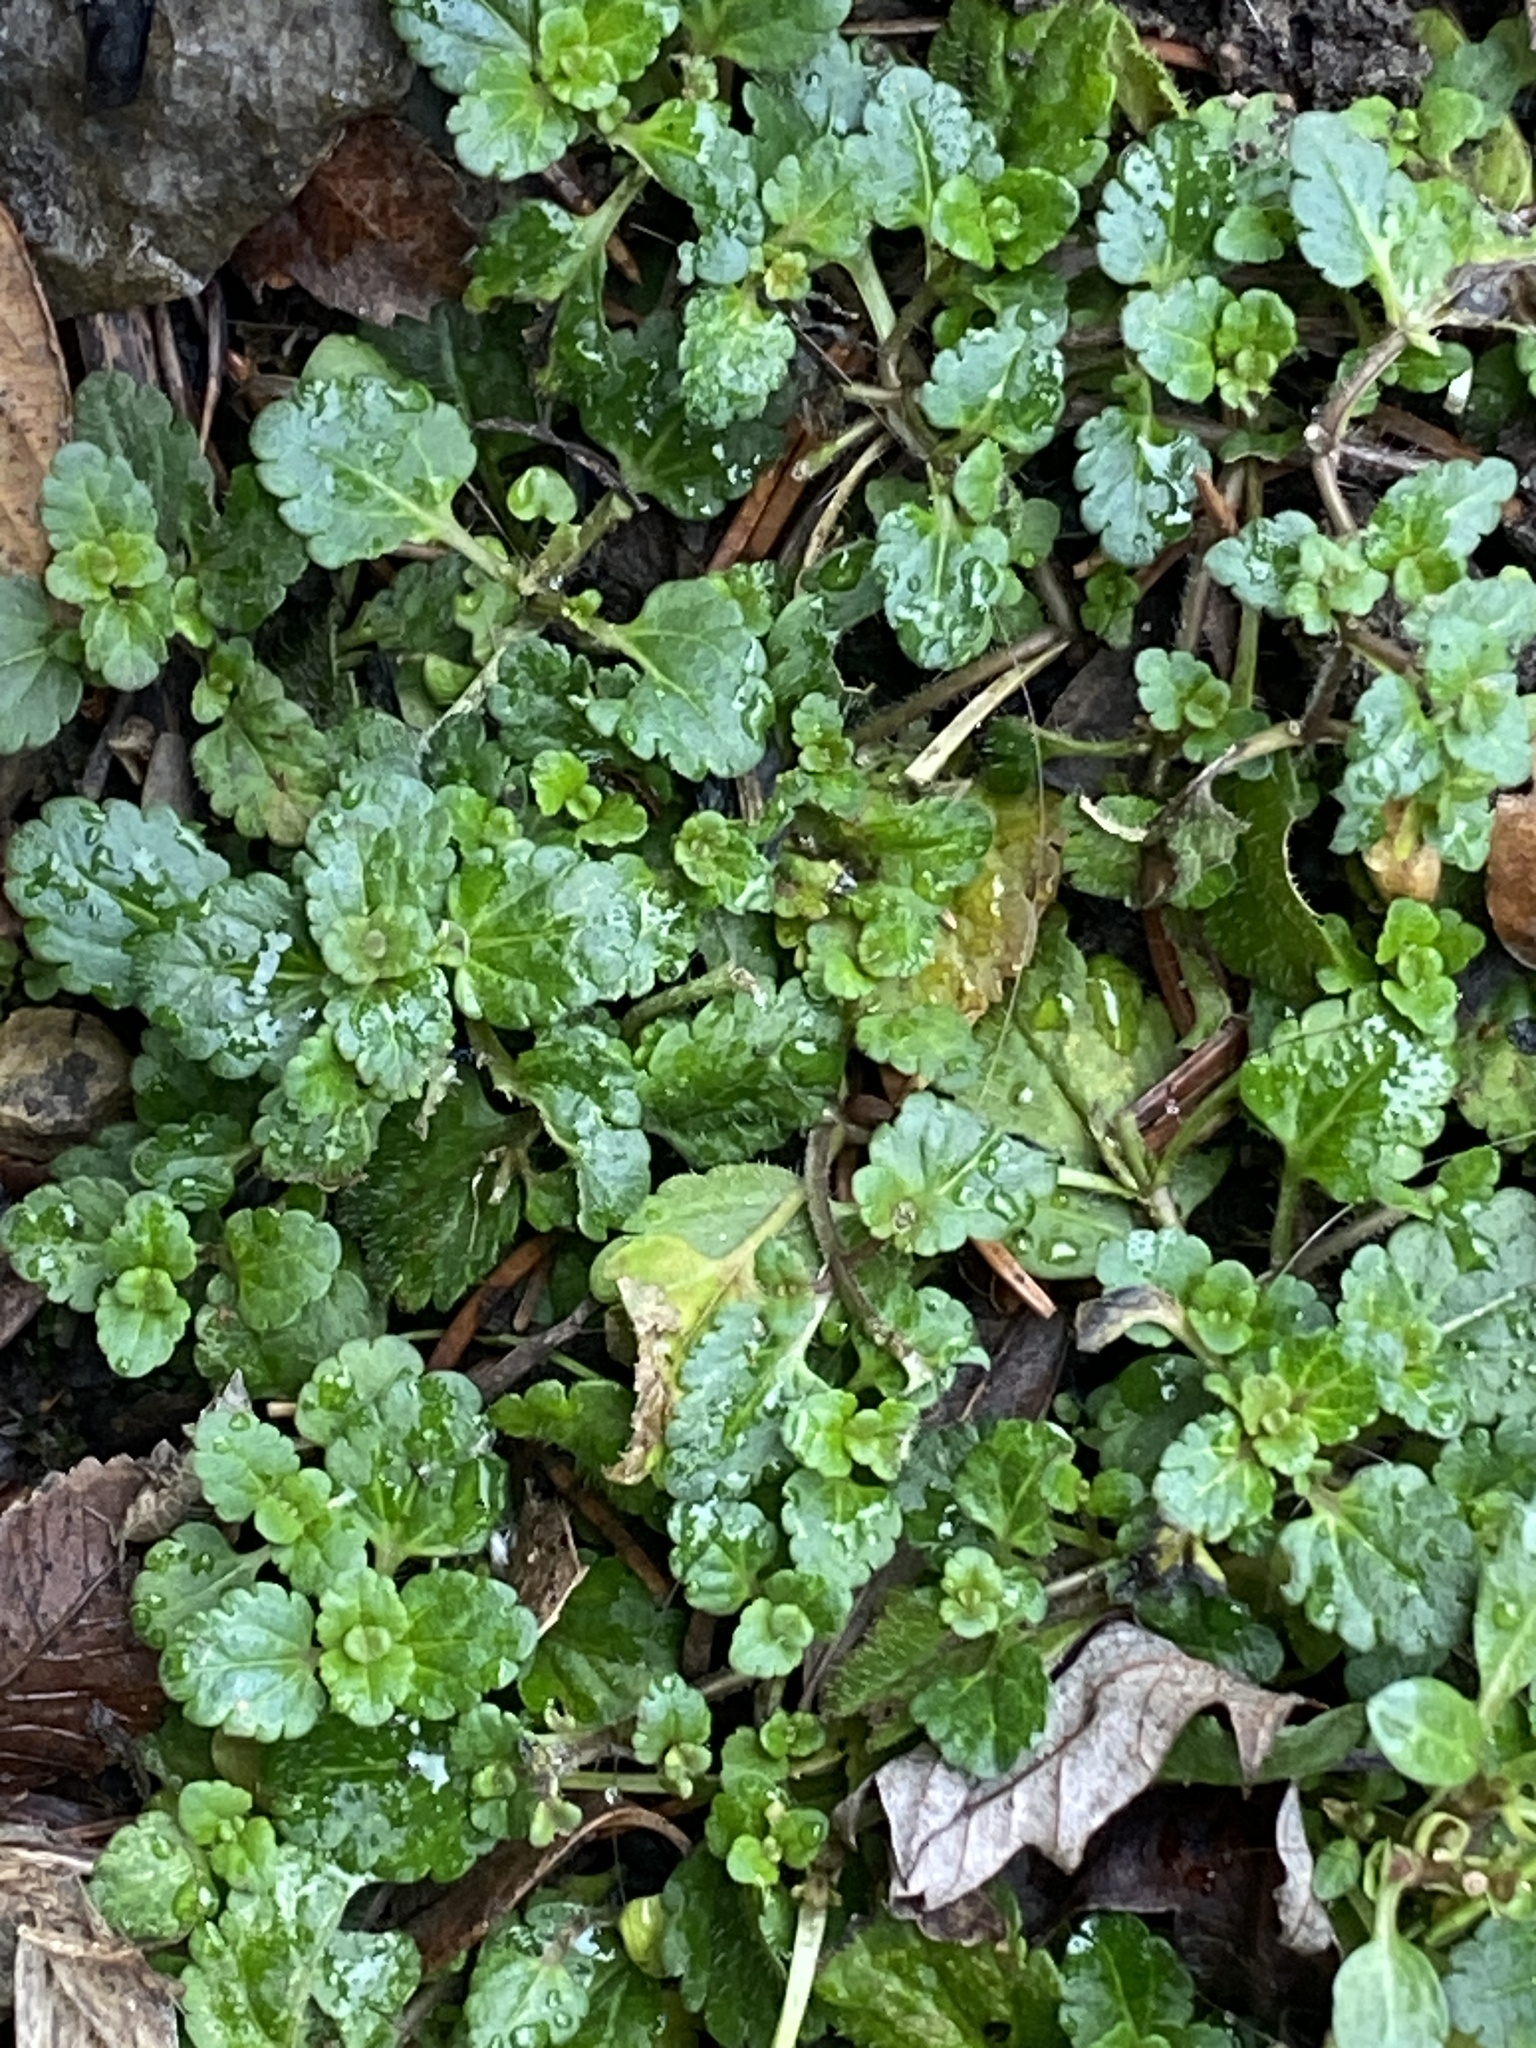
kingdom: Plantae
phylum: Tracheophyta
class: Magnoliopsida
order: Lamiales
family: Plantaginaceae
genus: Veronica
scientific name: Veronica persica
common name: Common field-speedwell
